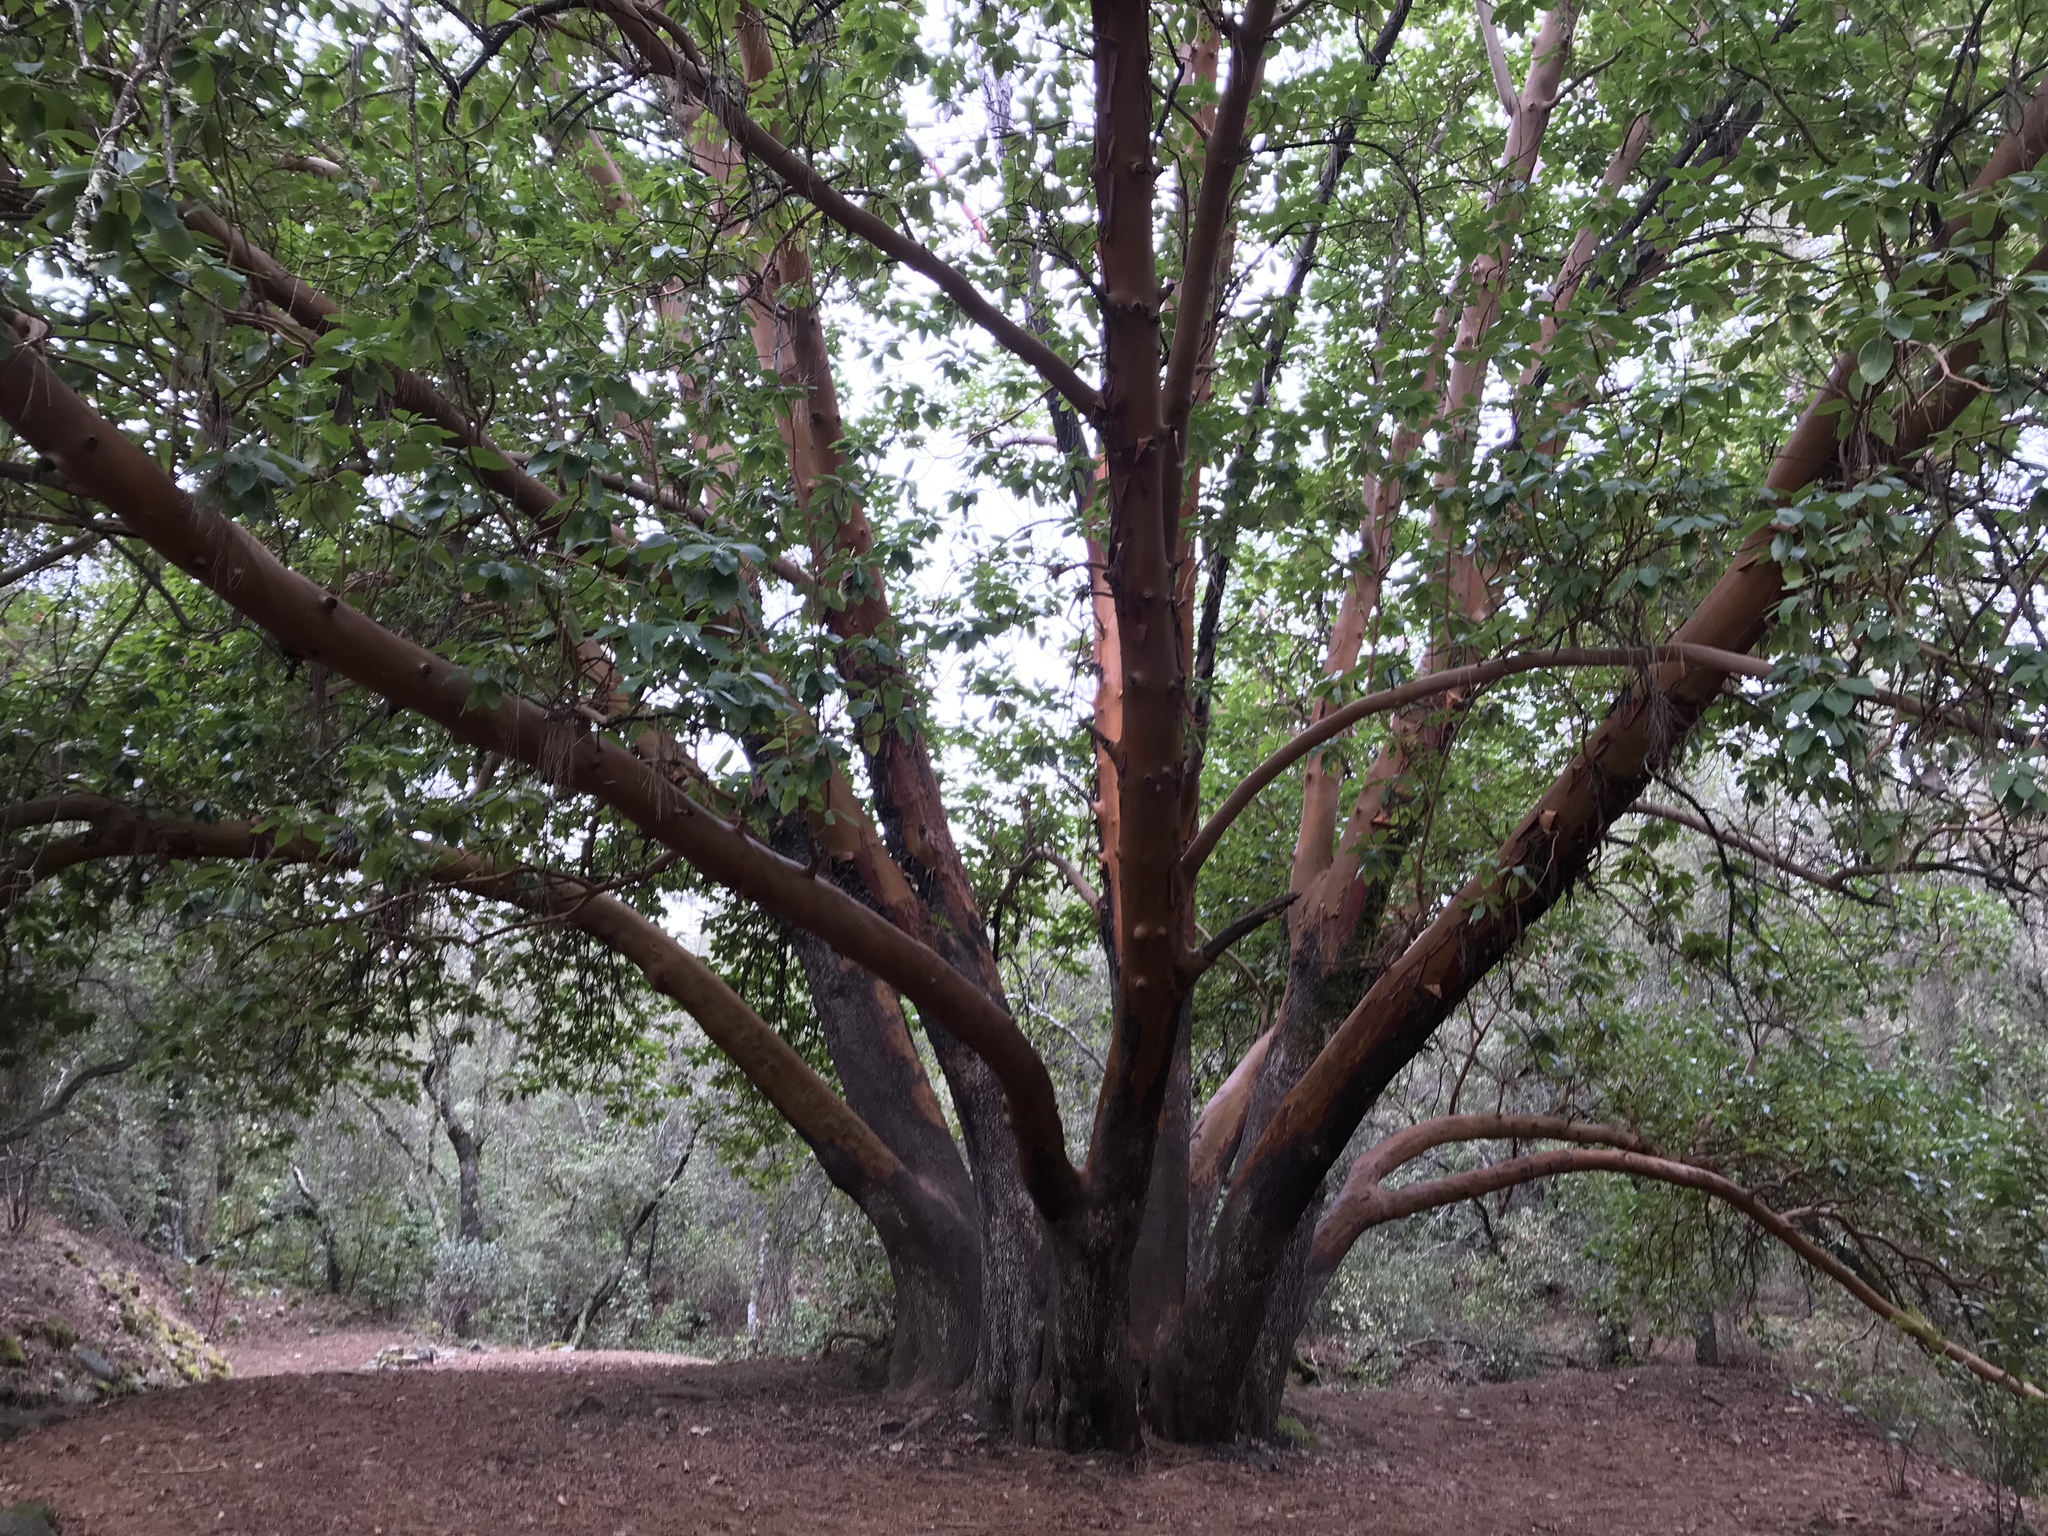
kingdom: Plantae
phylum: Tracheophyta
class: Magnoliopsida
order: Ericales
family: Ericaceae
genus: Arbutus
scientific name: Arbutus menziesii
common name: Pacific madrone
